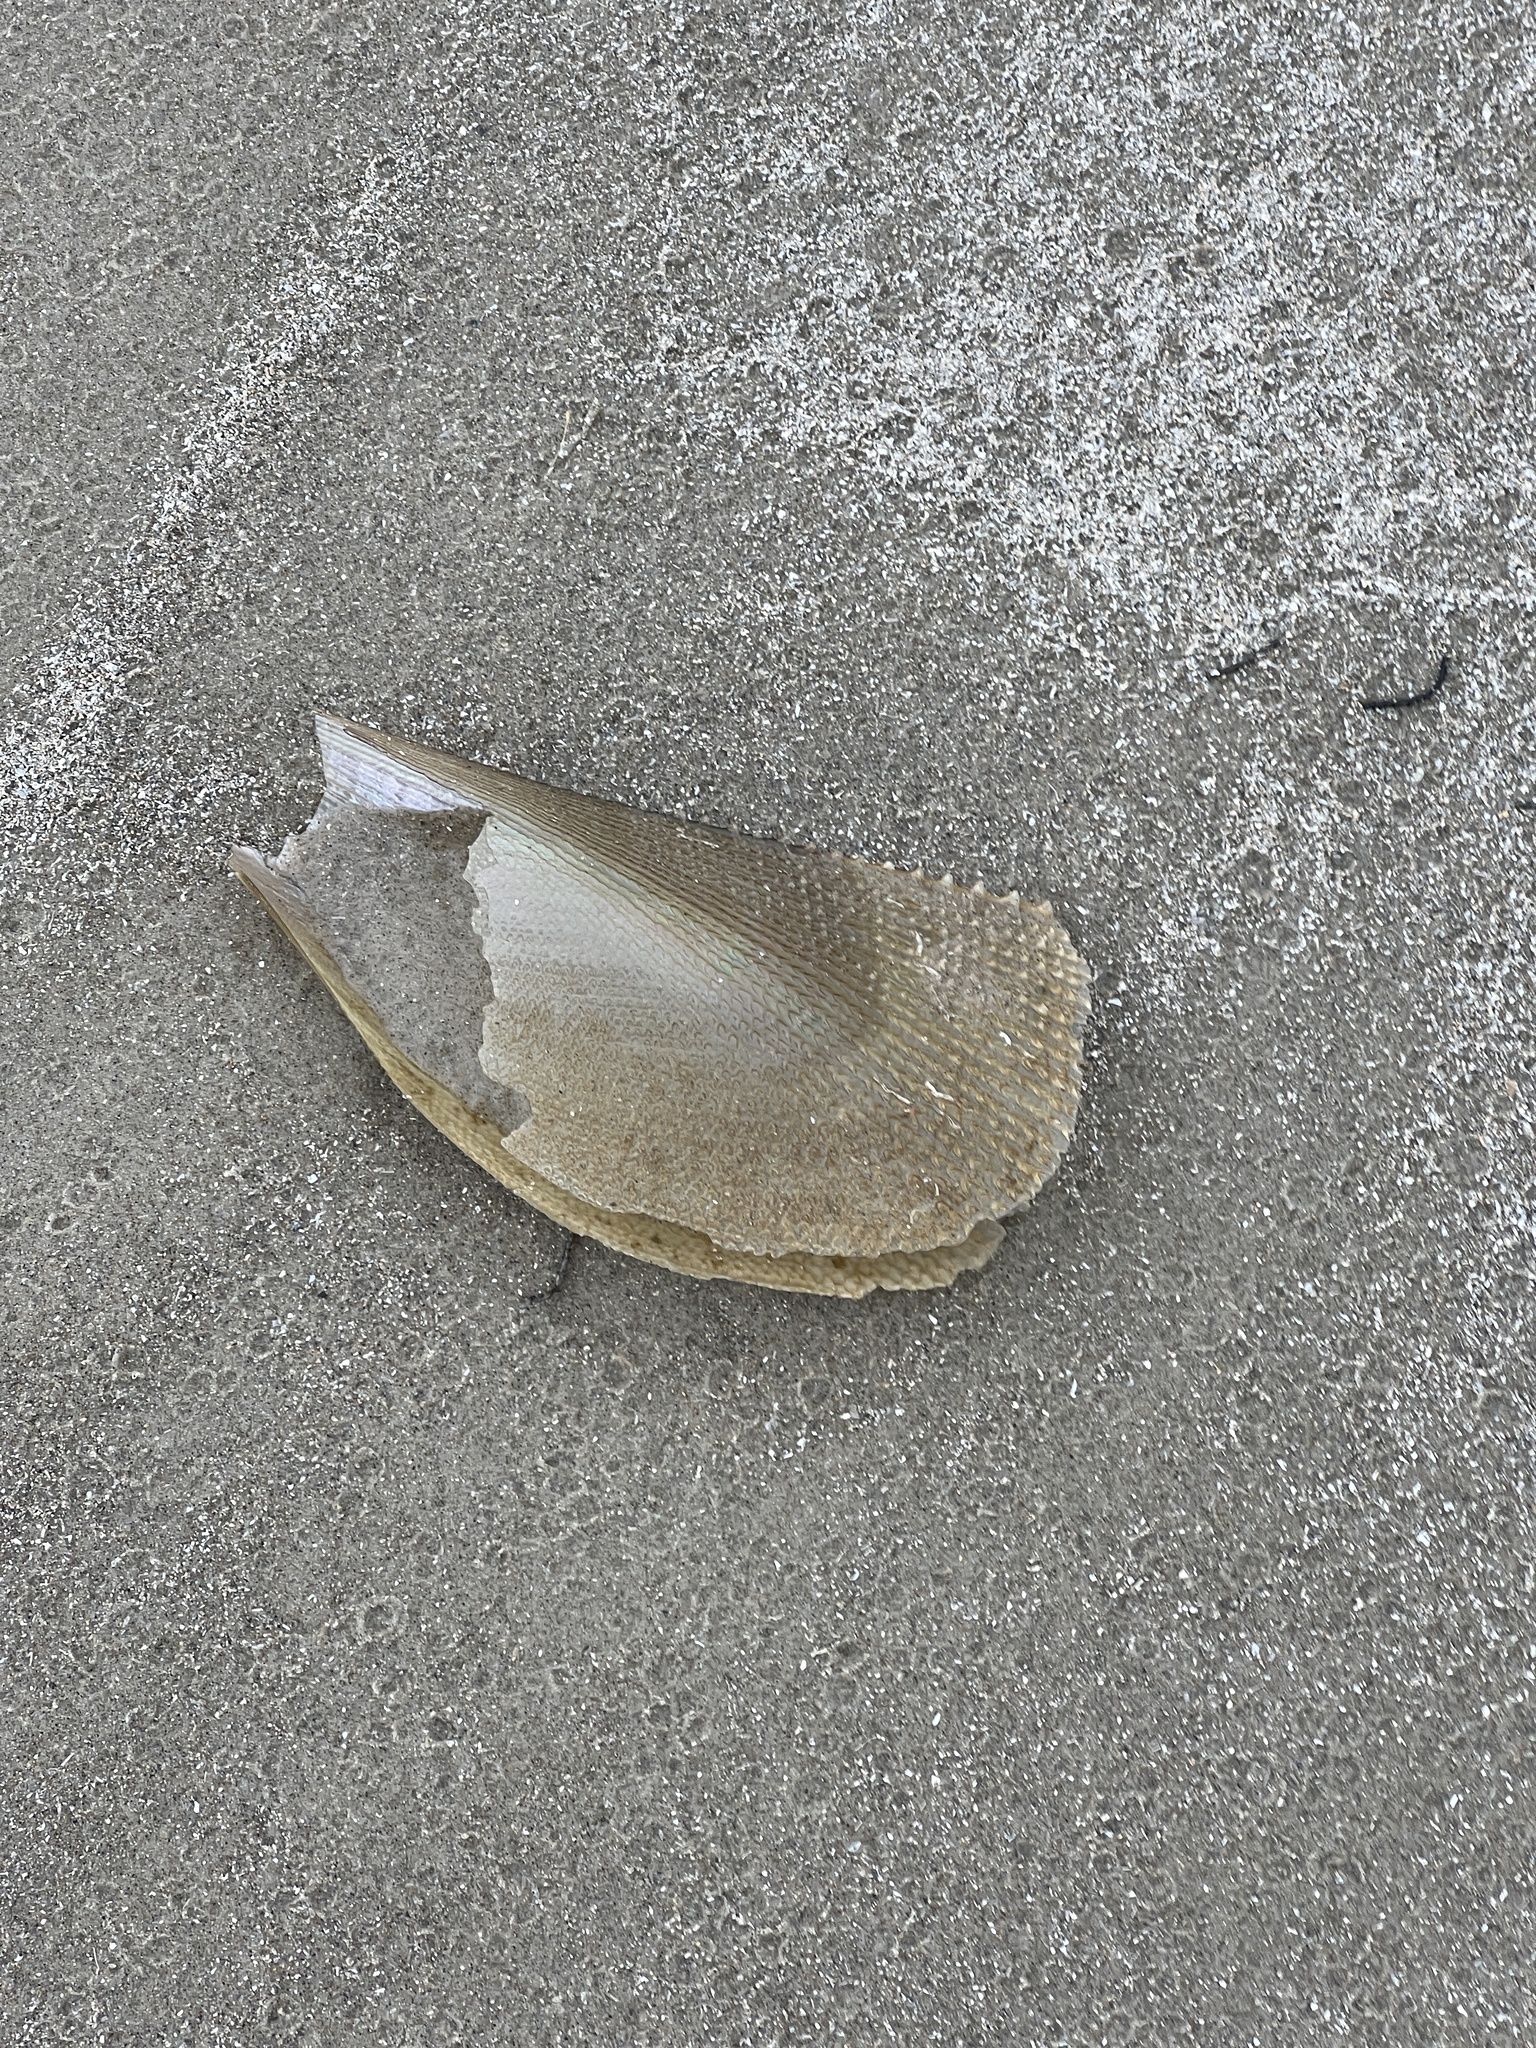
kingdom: Animalia
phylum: Mollusca
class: Bivalvia
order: Ostreida
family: Pinnidae
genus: Atrina
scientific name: Atrina serrata
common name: Saw-toothed penshell
